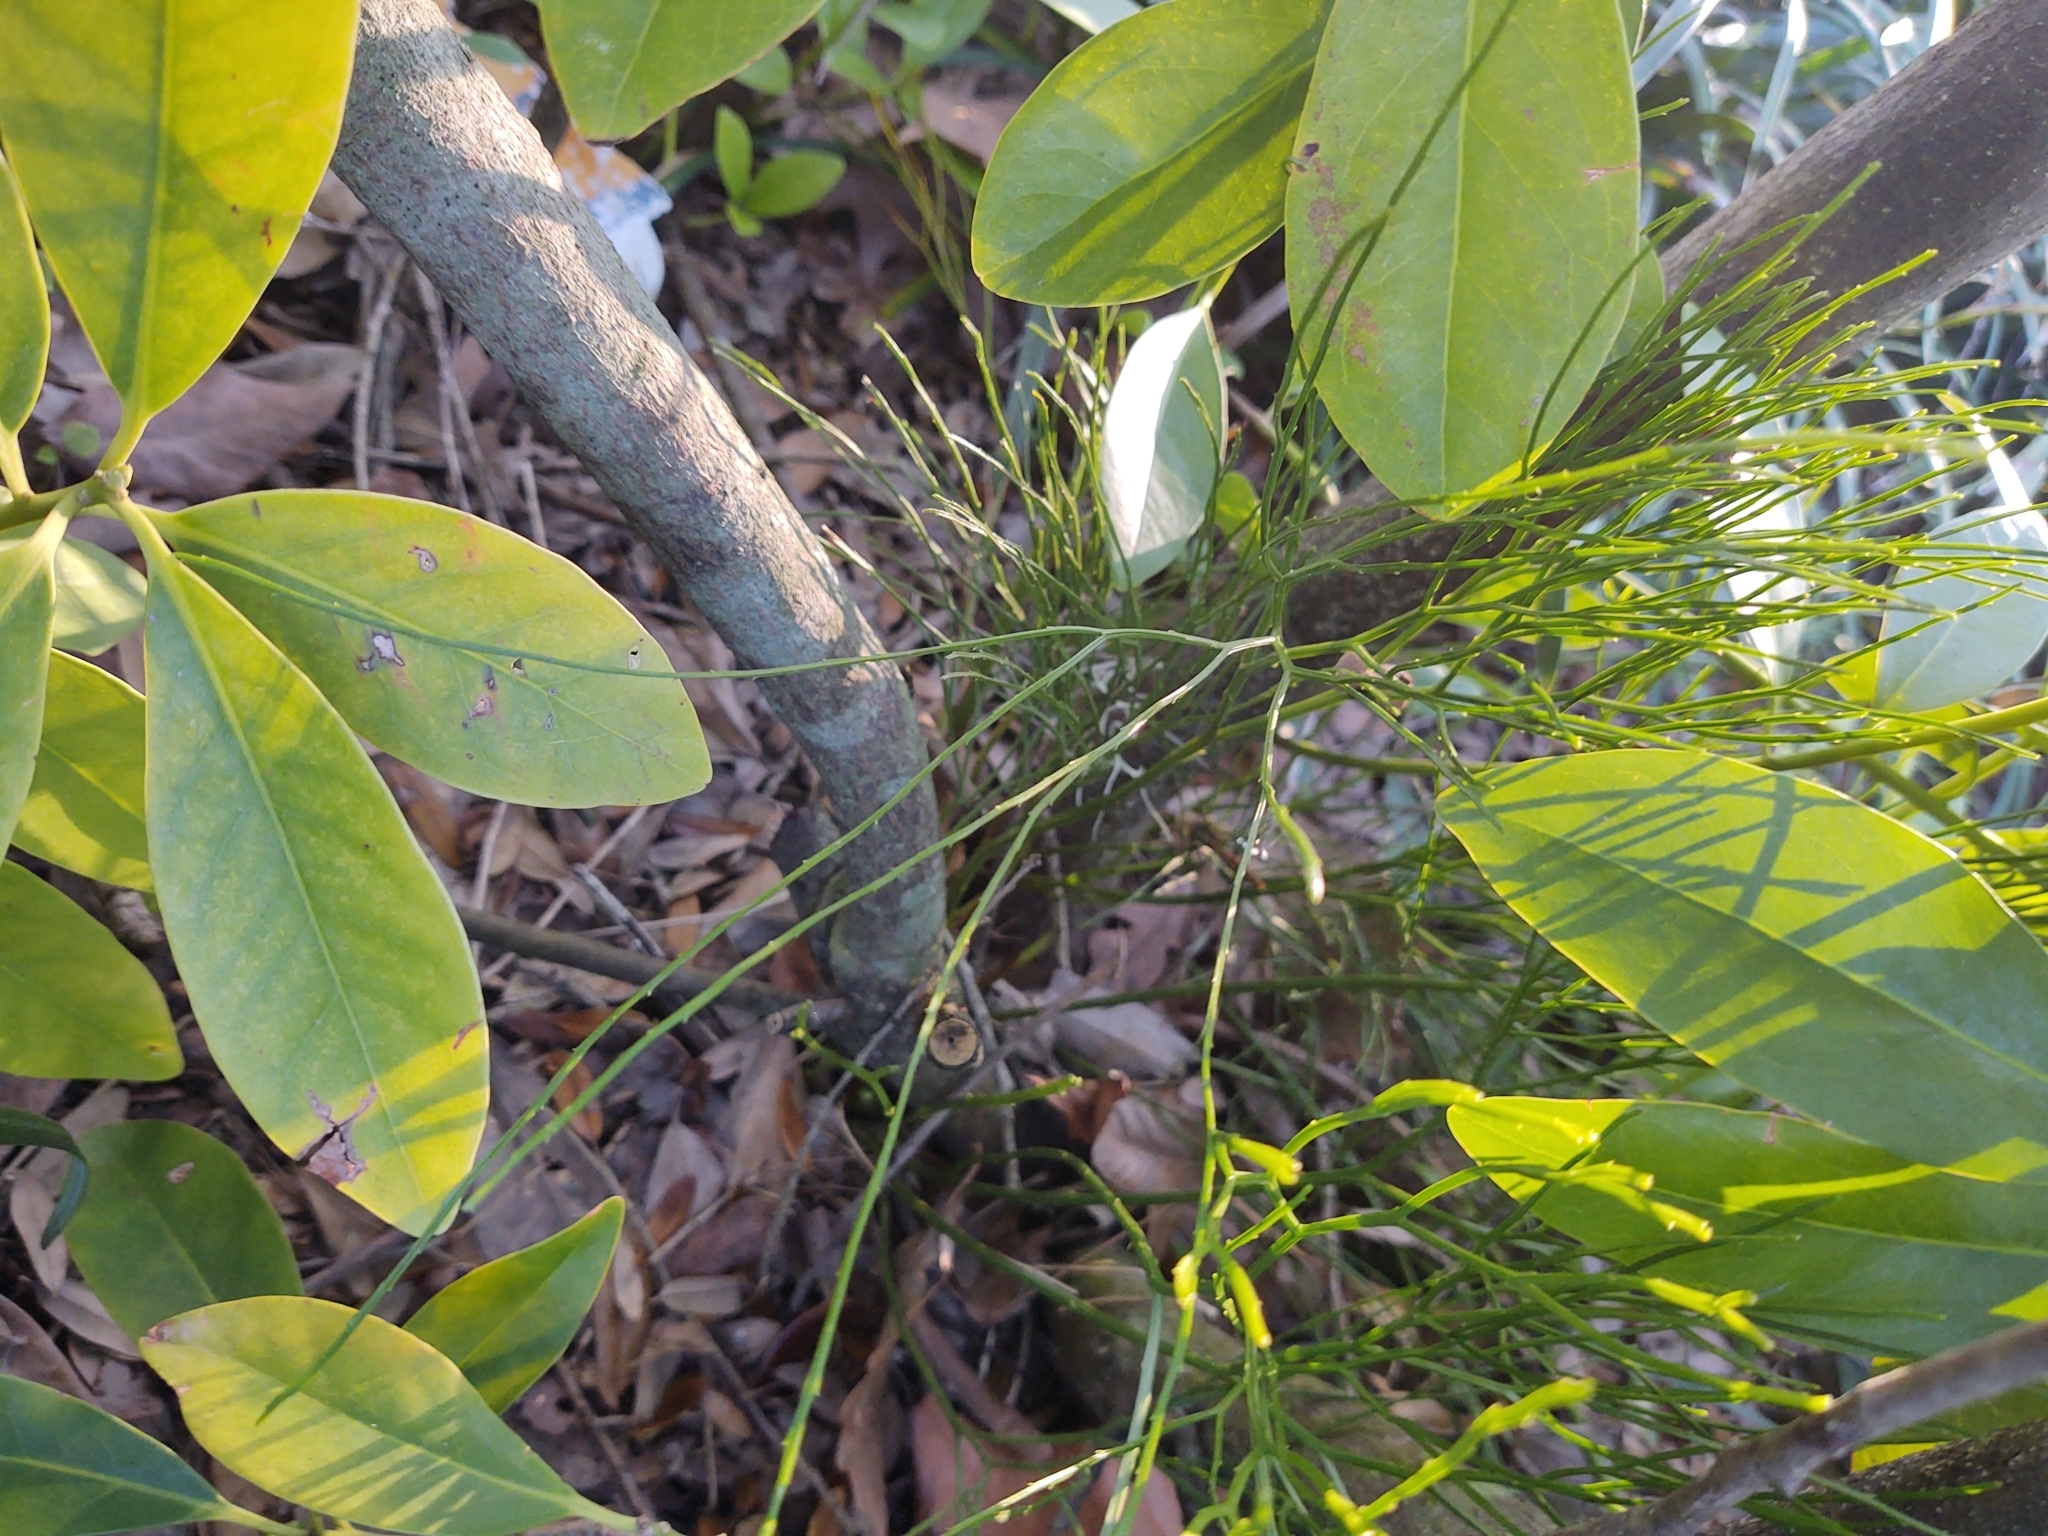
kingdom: Plantae
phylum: Tracheophyta
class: Polypodiopsida
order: Psilotales
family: Psilotaceae
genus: Psilotum
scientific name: Psilotum nudum
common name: Skeleton fork fern
